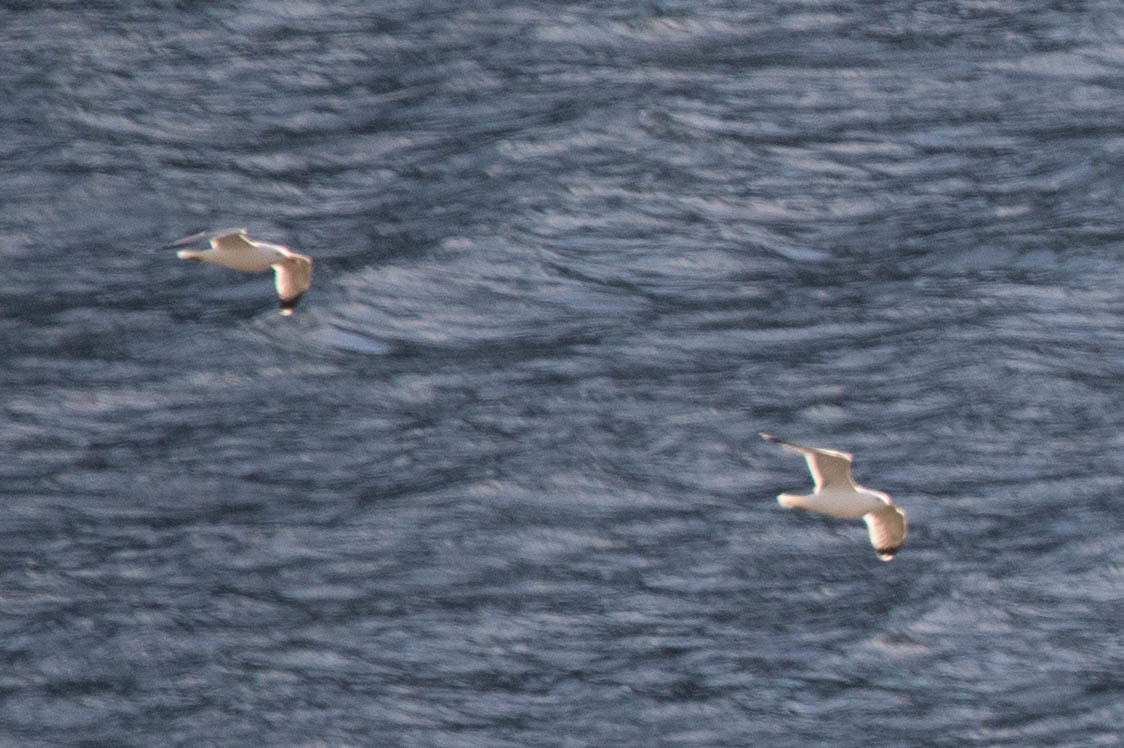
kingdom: Animalia
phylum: Chordata
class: Aves
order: Charadriiformes
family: Laridae
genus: Larus
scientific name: Larus californicus
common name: California gull
